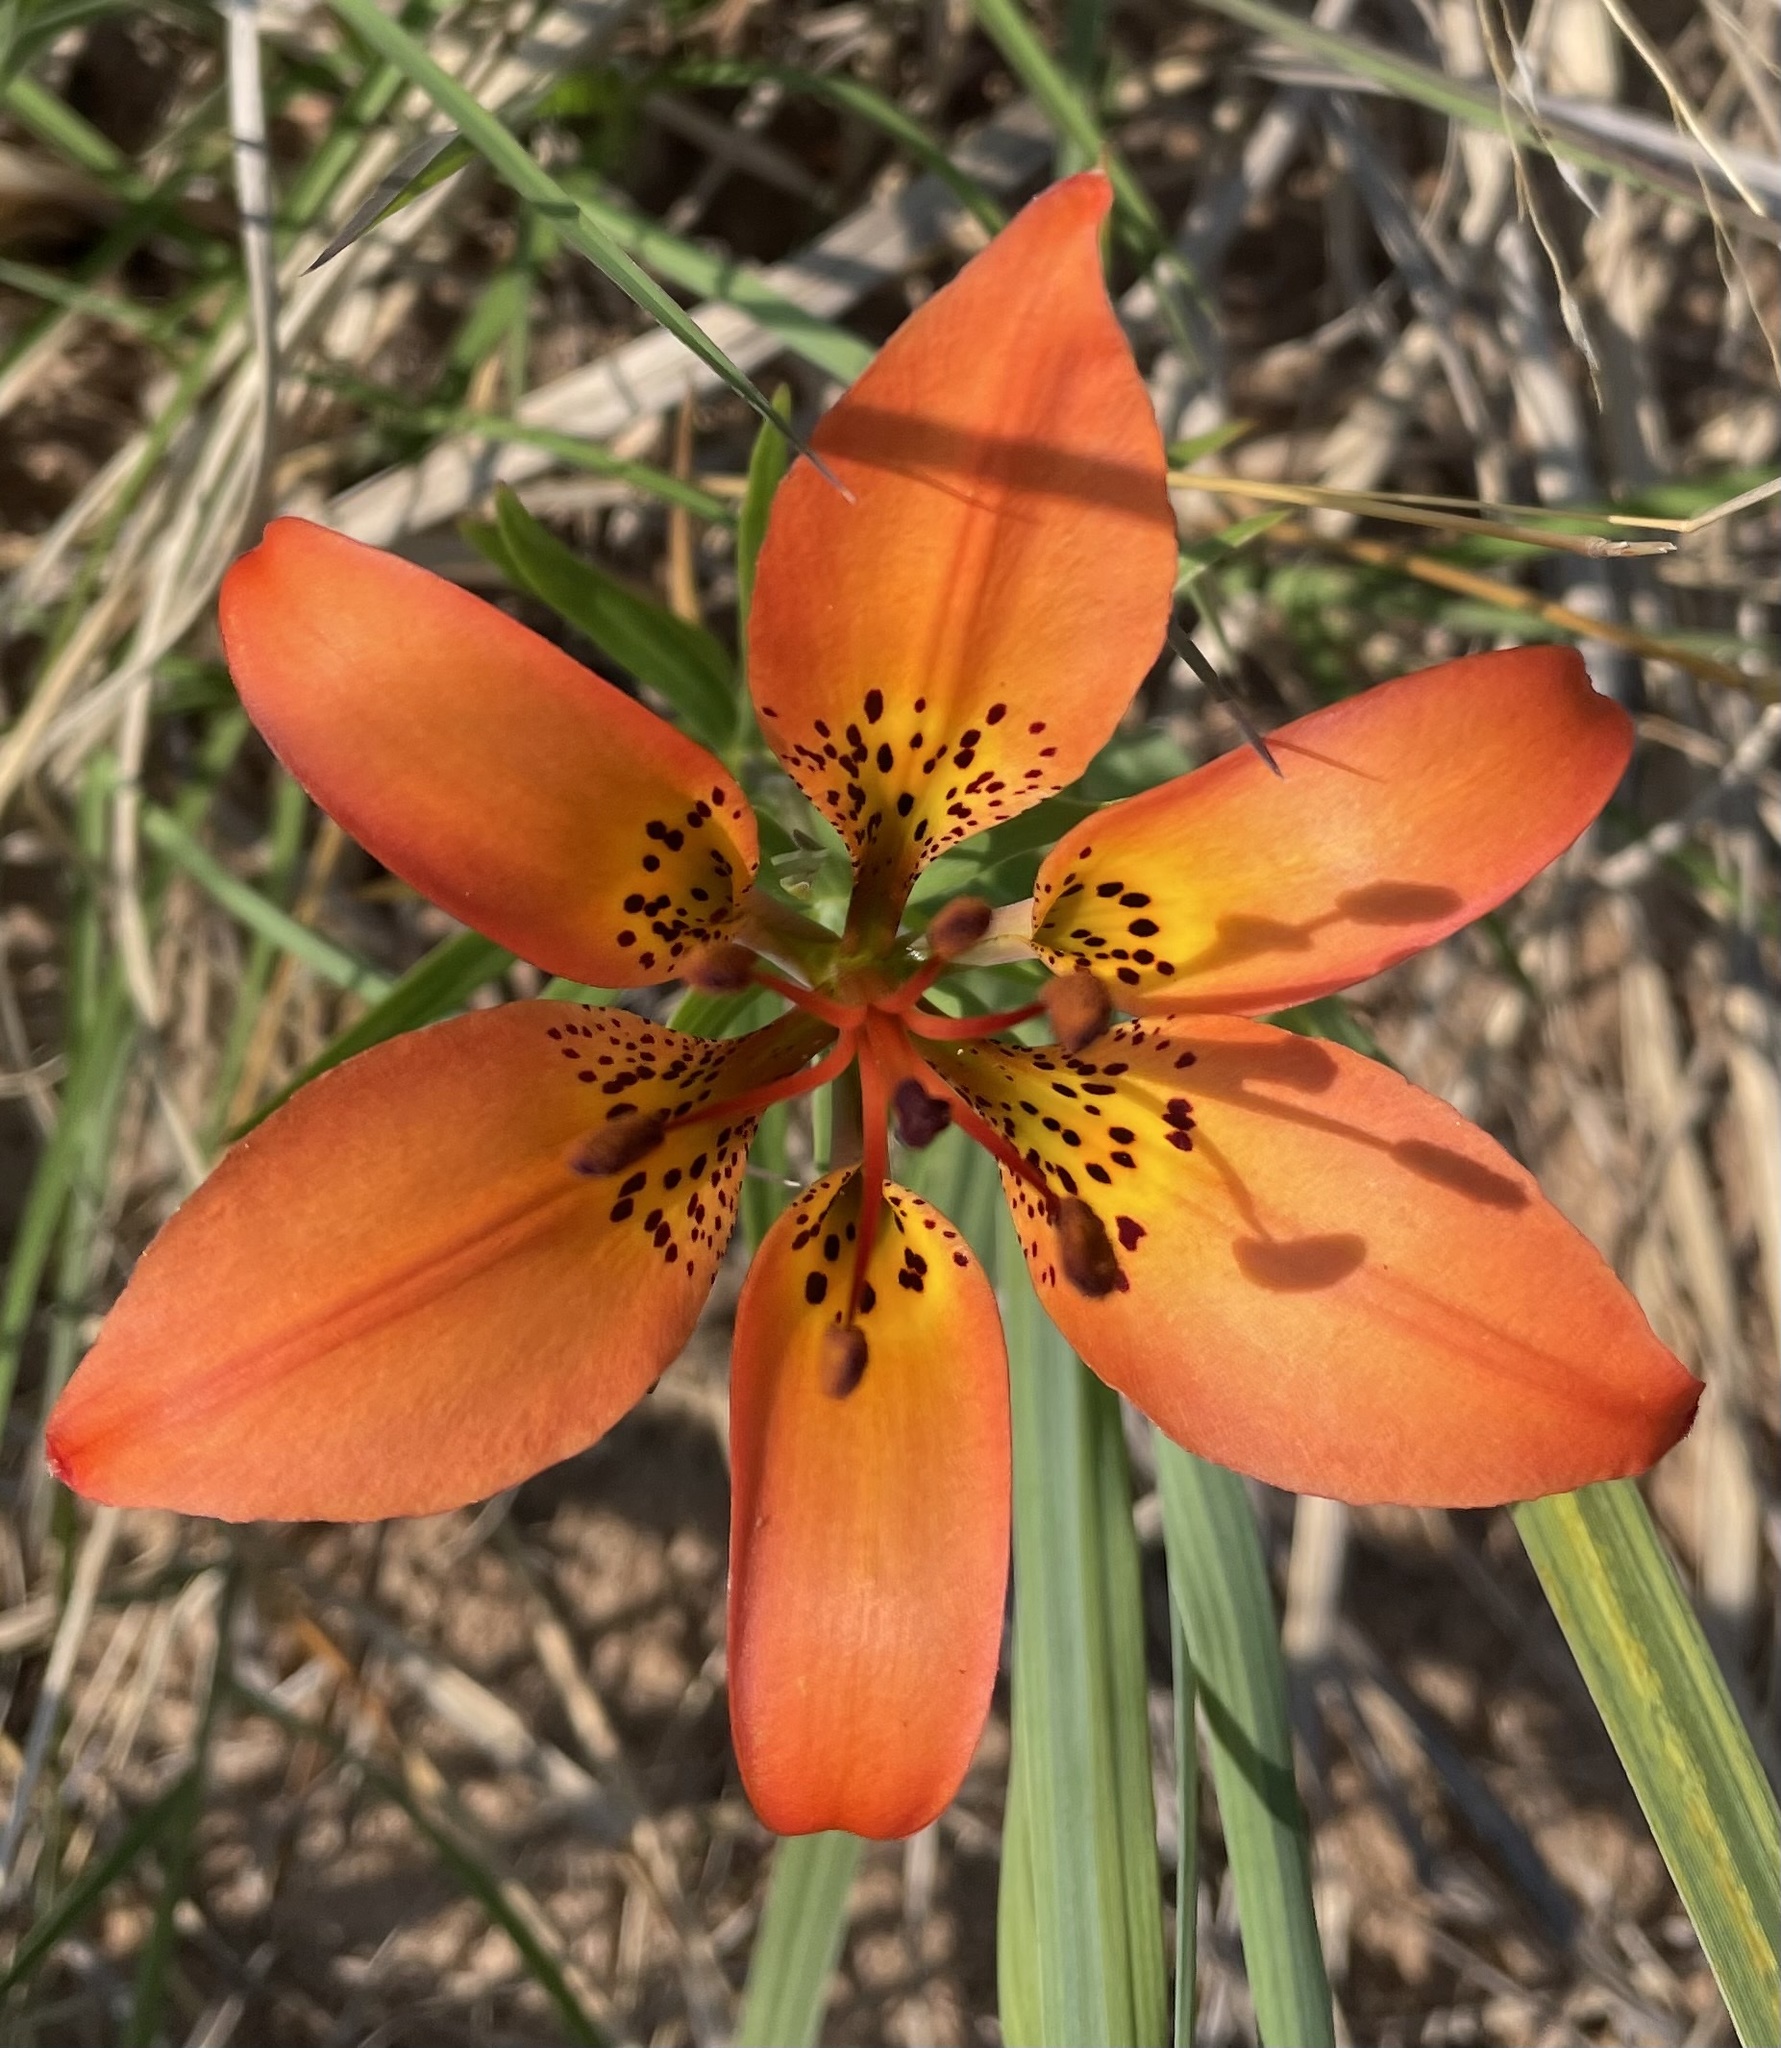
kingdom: Plantae
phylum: Tracheophyta
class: Liliopsida
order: Liliales
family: Liliaceae
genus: Lilium
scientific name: Lilium philadelphicum
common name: Red lily
